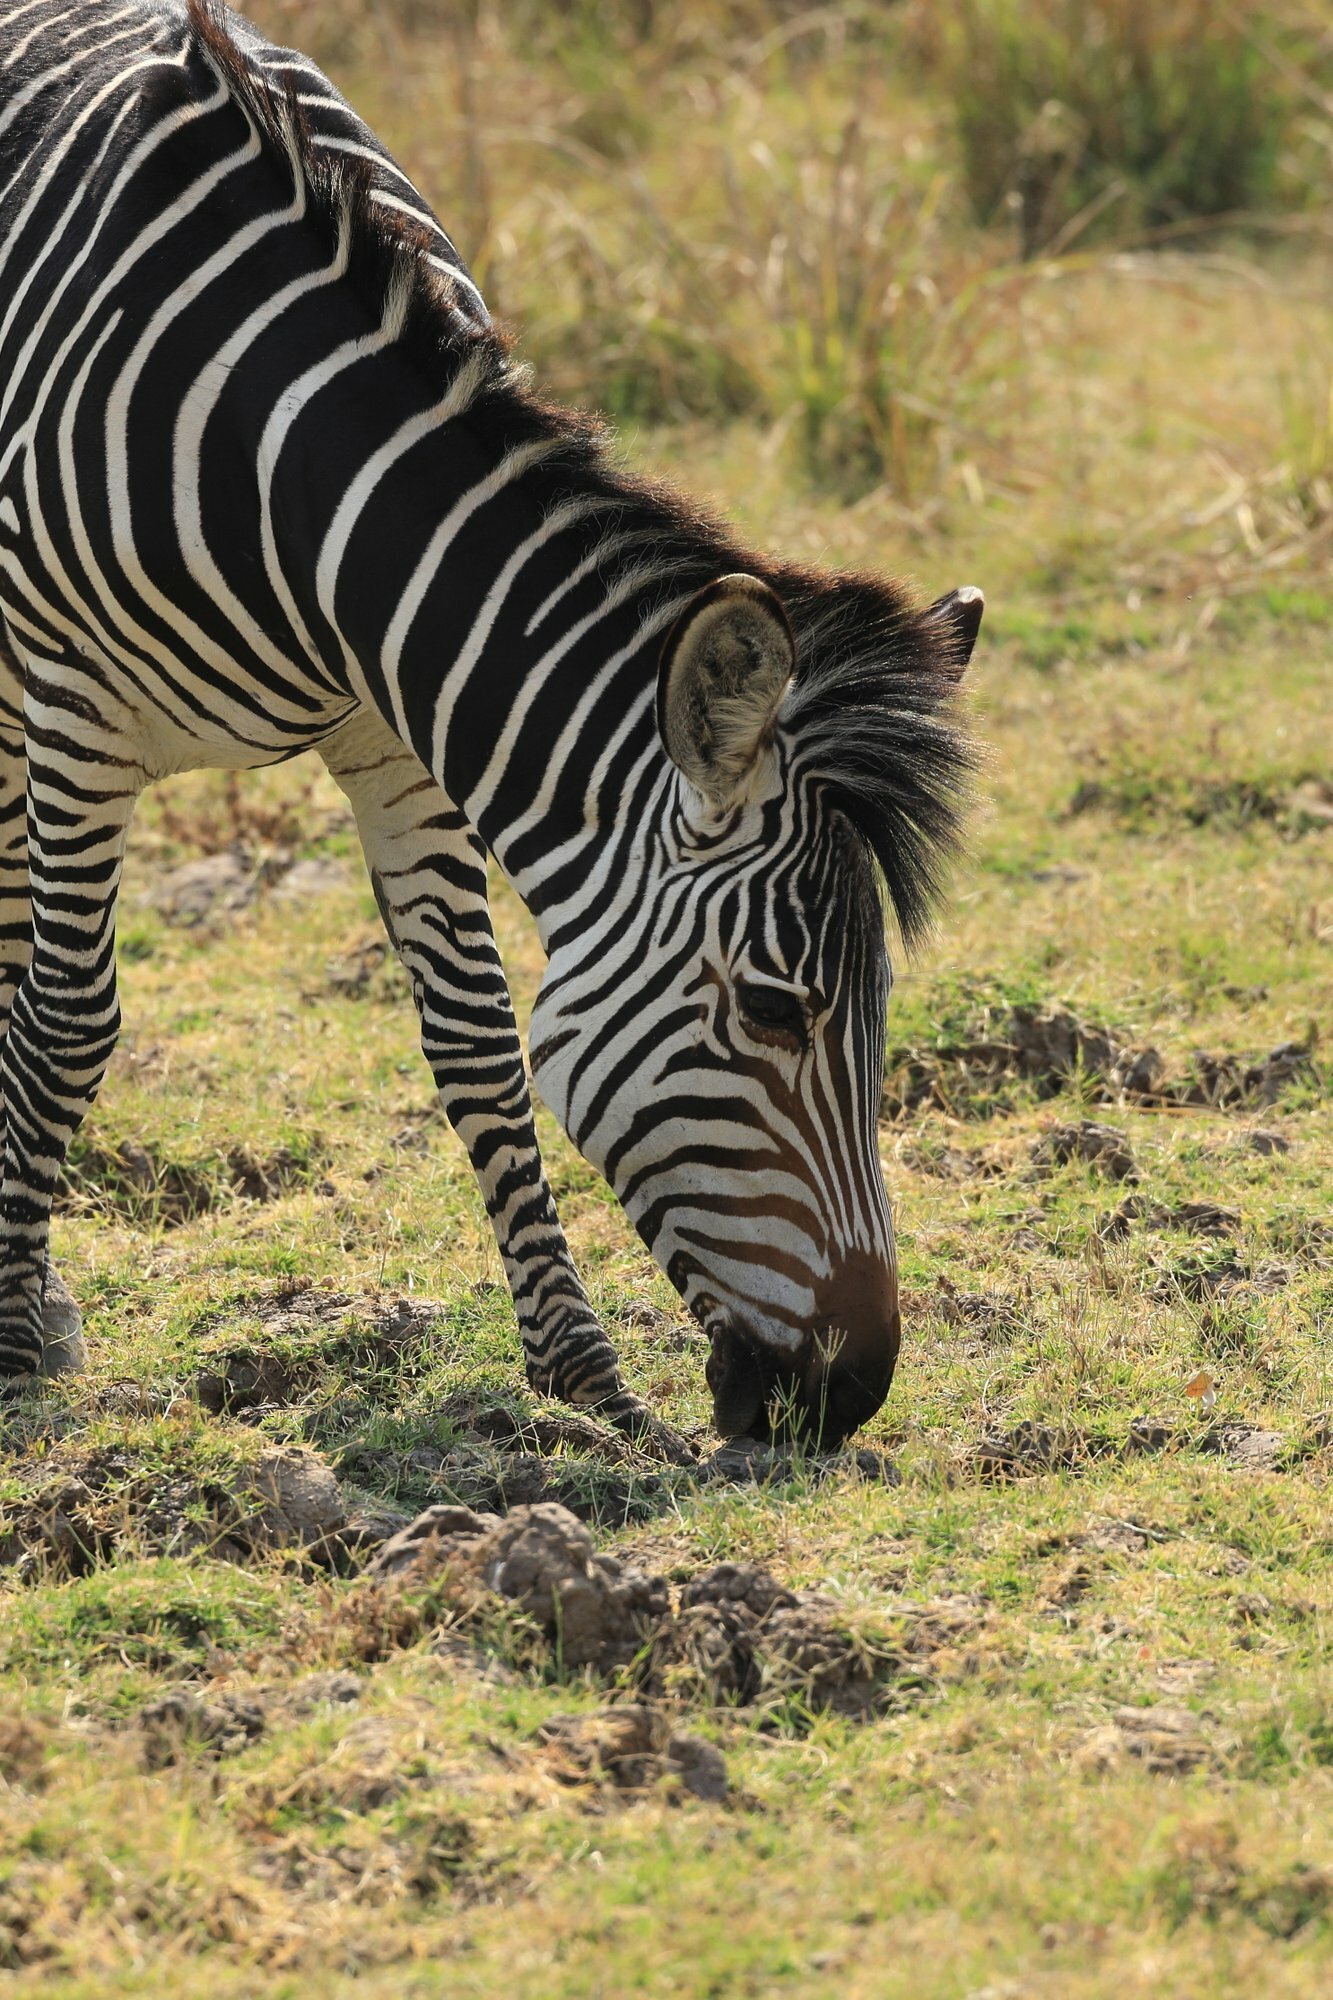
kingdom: Animalia
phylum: Chordata
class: Mammalia
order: Perissodactyla
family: Equidae
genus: Equus
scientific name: Equus quagga
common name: Plains zebra
